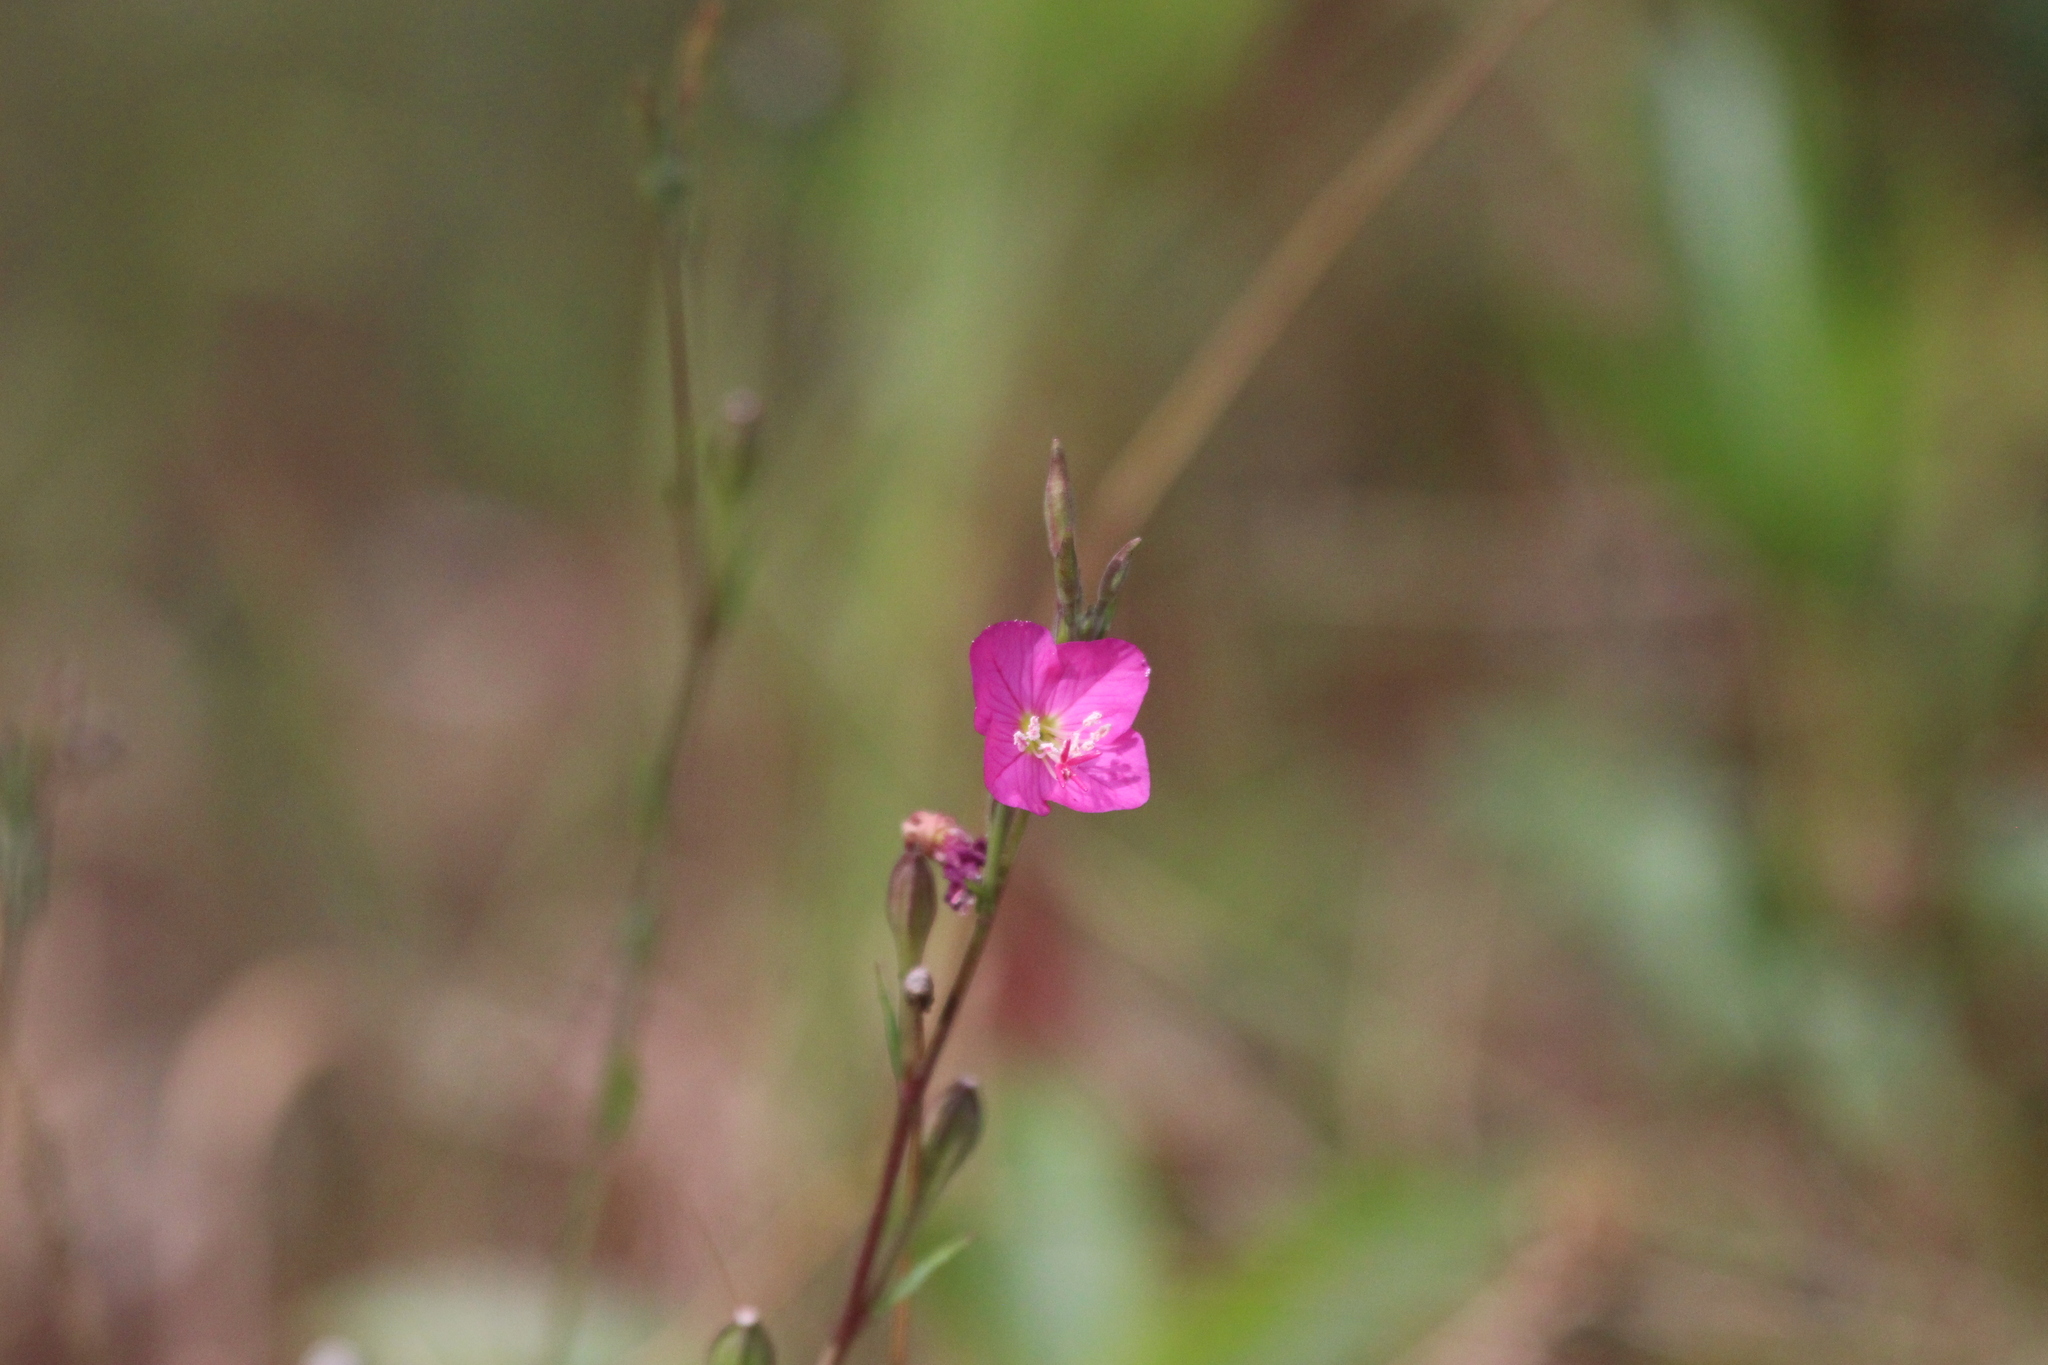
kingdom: Plantae
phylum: Tracheophyta
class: Magnoliopsida
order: Myrtales
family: Onagraceae
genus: Oenothera
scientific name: Oenothera rosea
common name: Rosy evening-primrose
